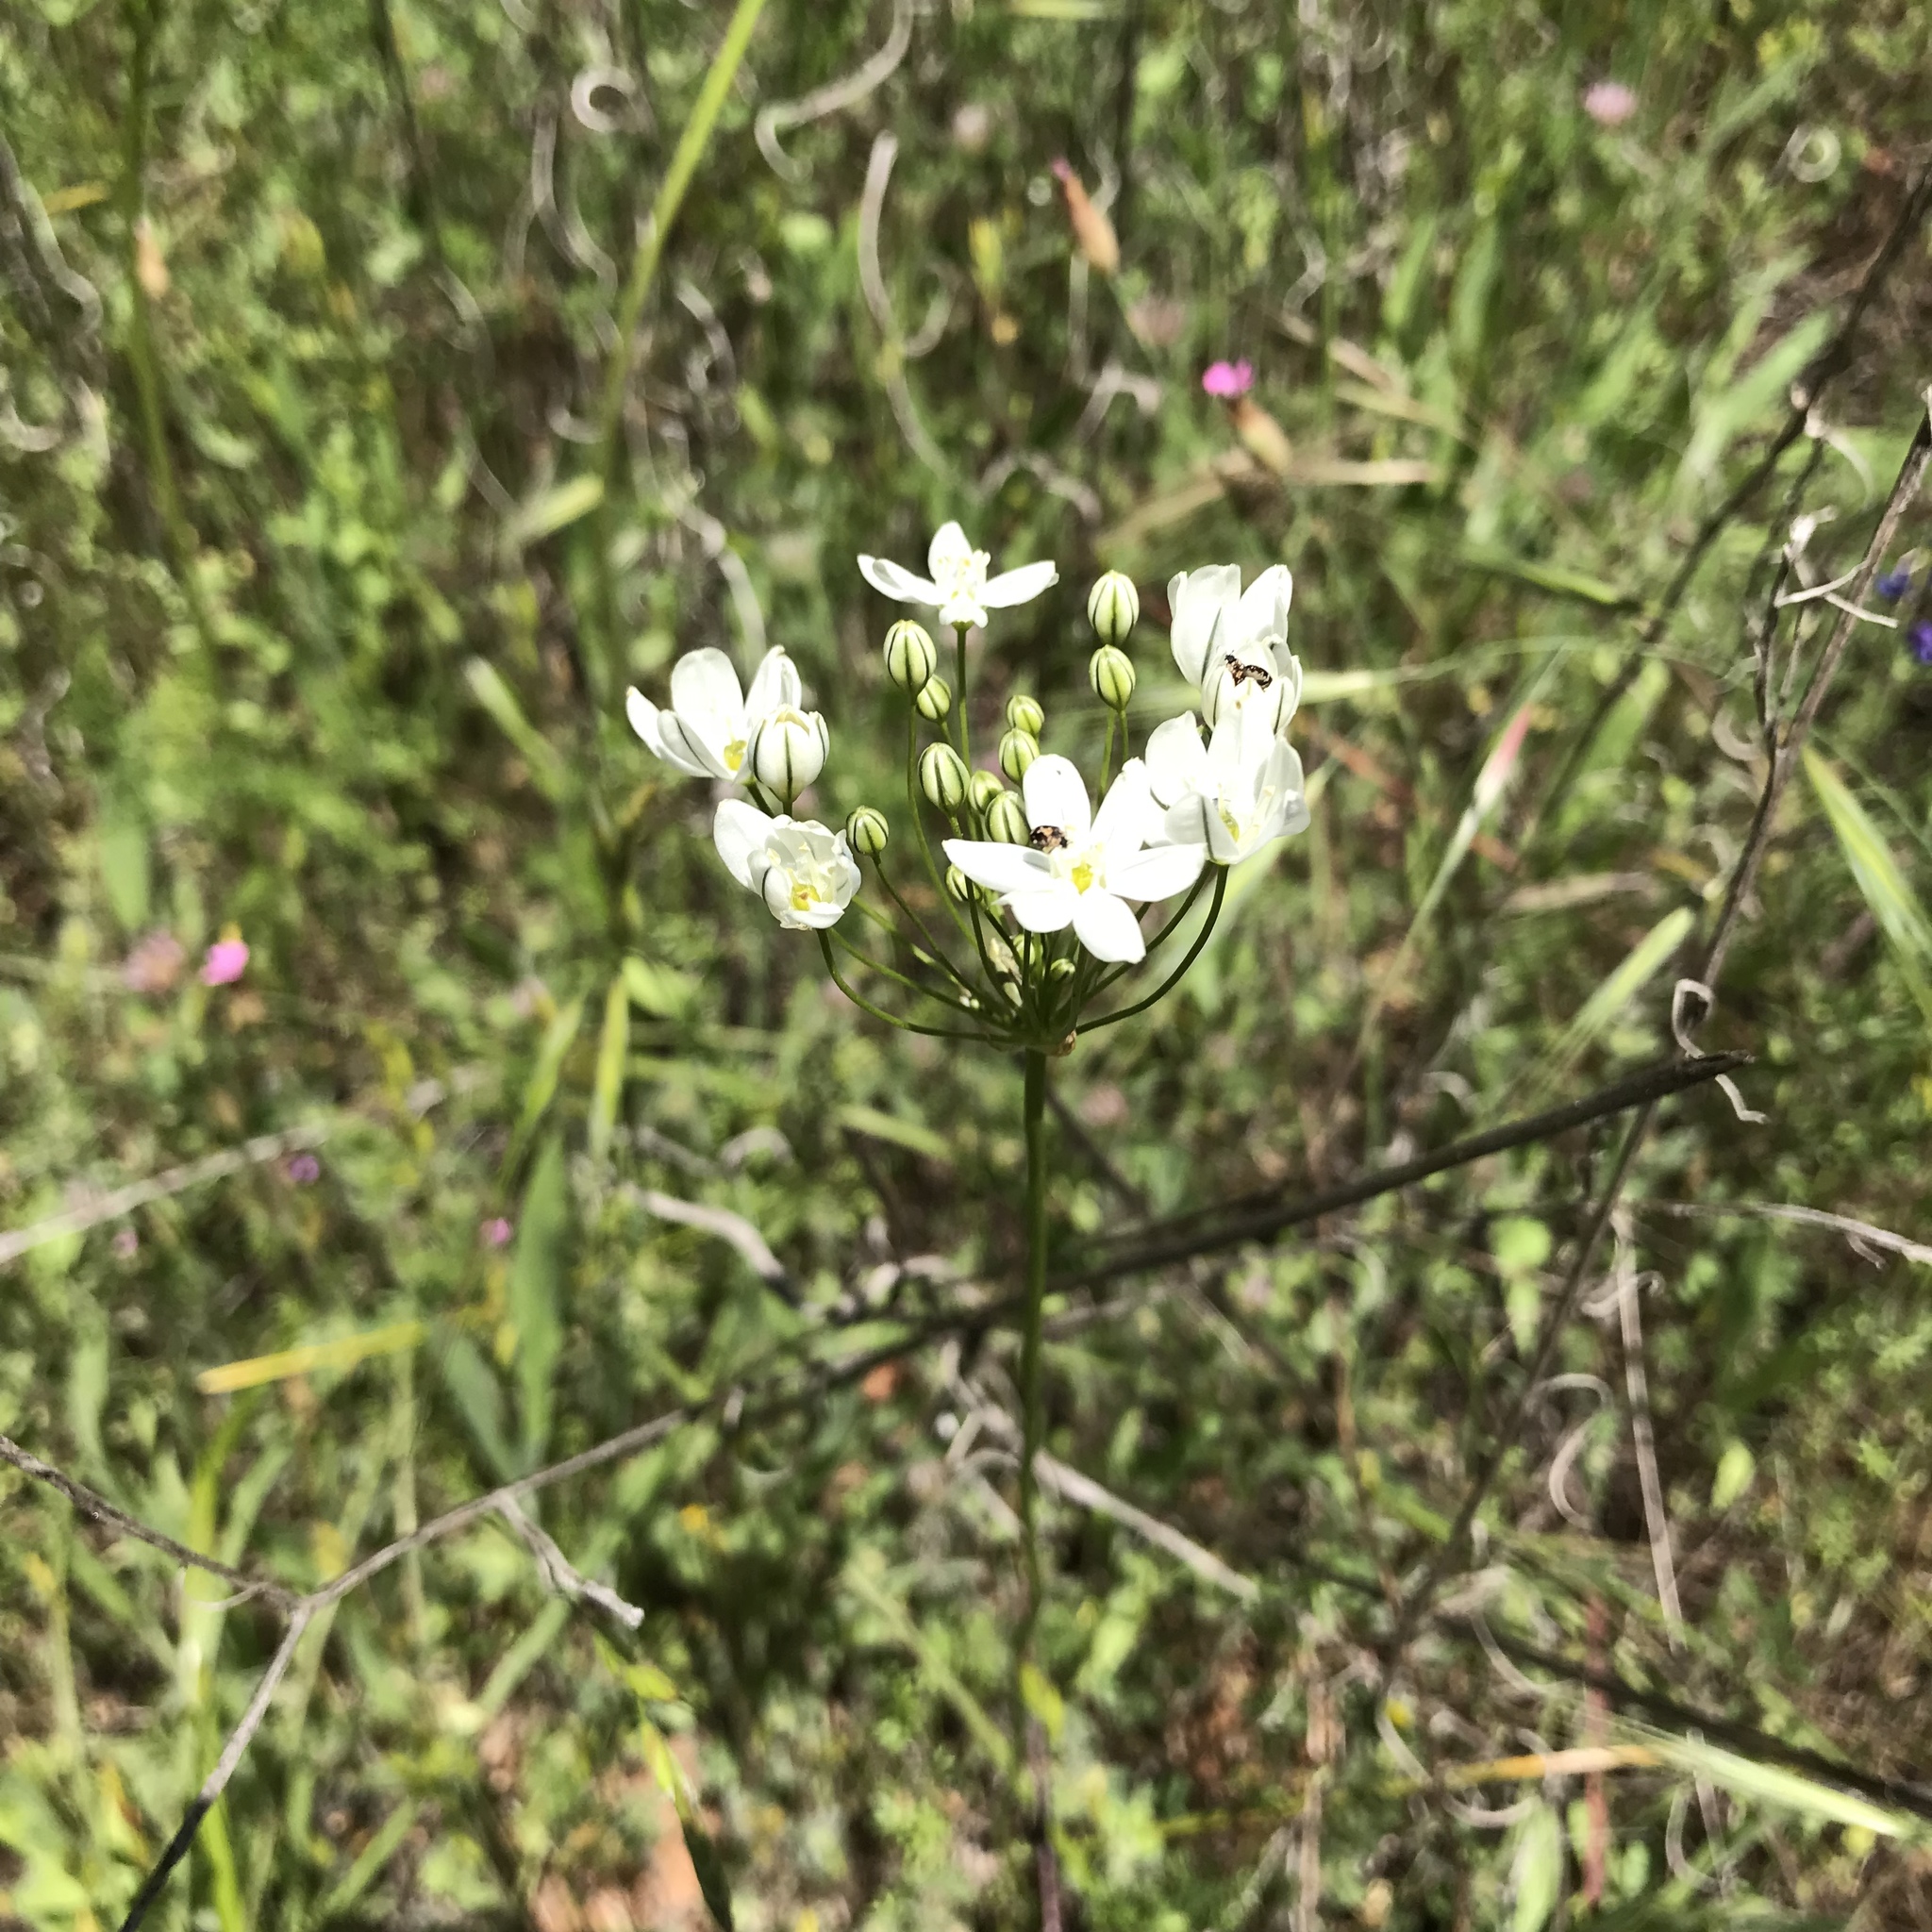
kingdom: Plantae
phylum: Tracheophyta
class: Liliopsida
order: Asparagales
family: Asparagaceae
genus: Triteleia
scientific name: Triteleia hyacinthina
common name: White brodiaea
